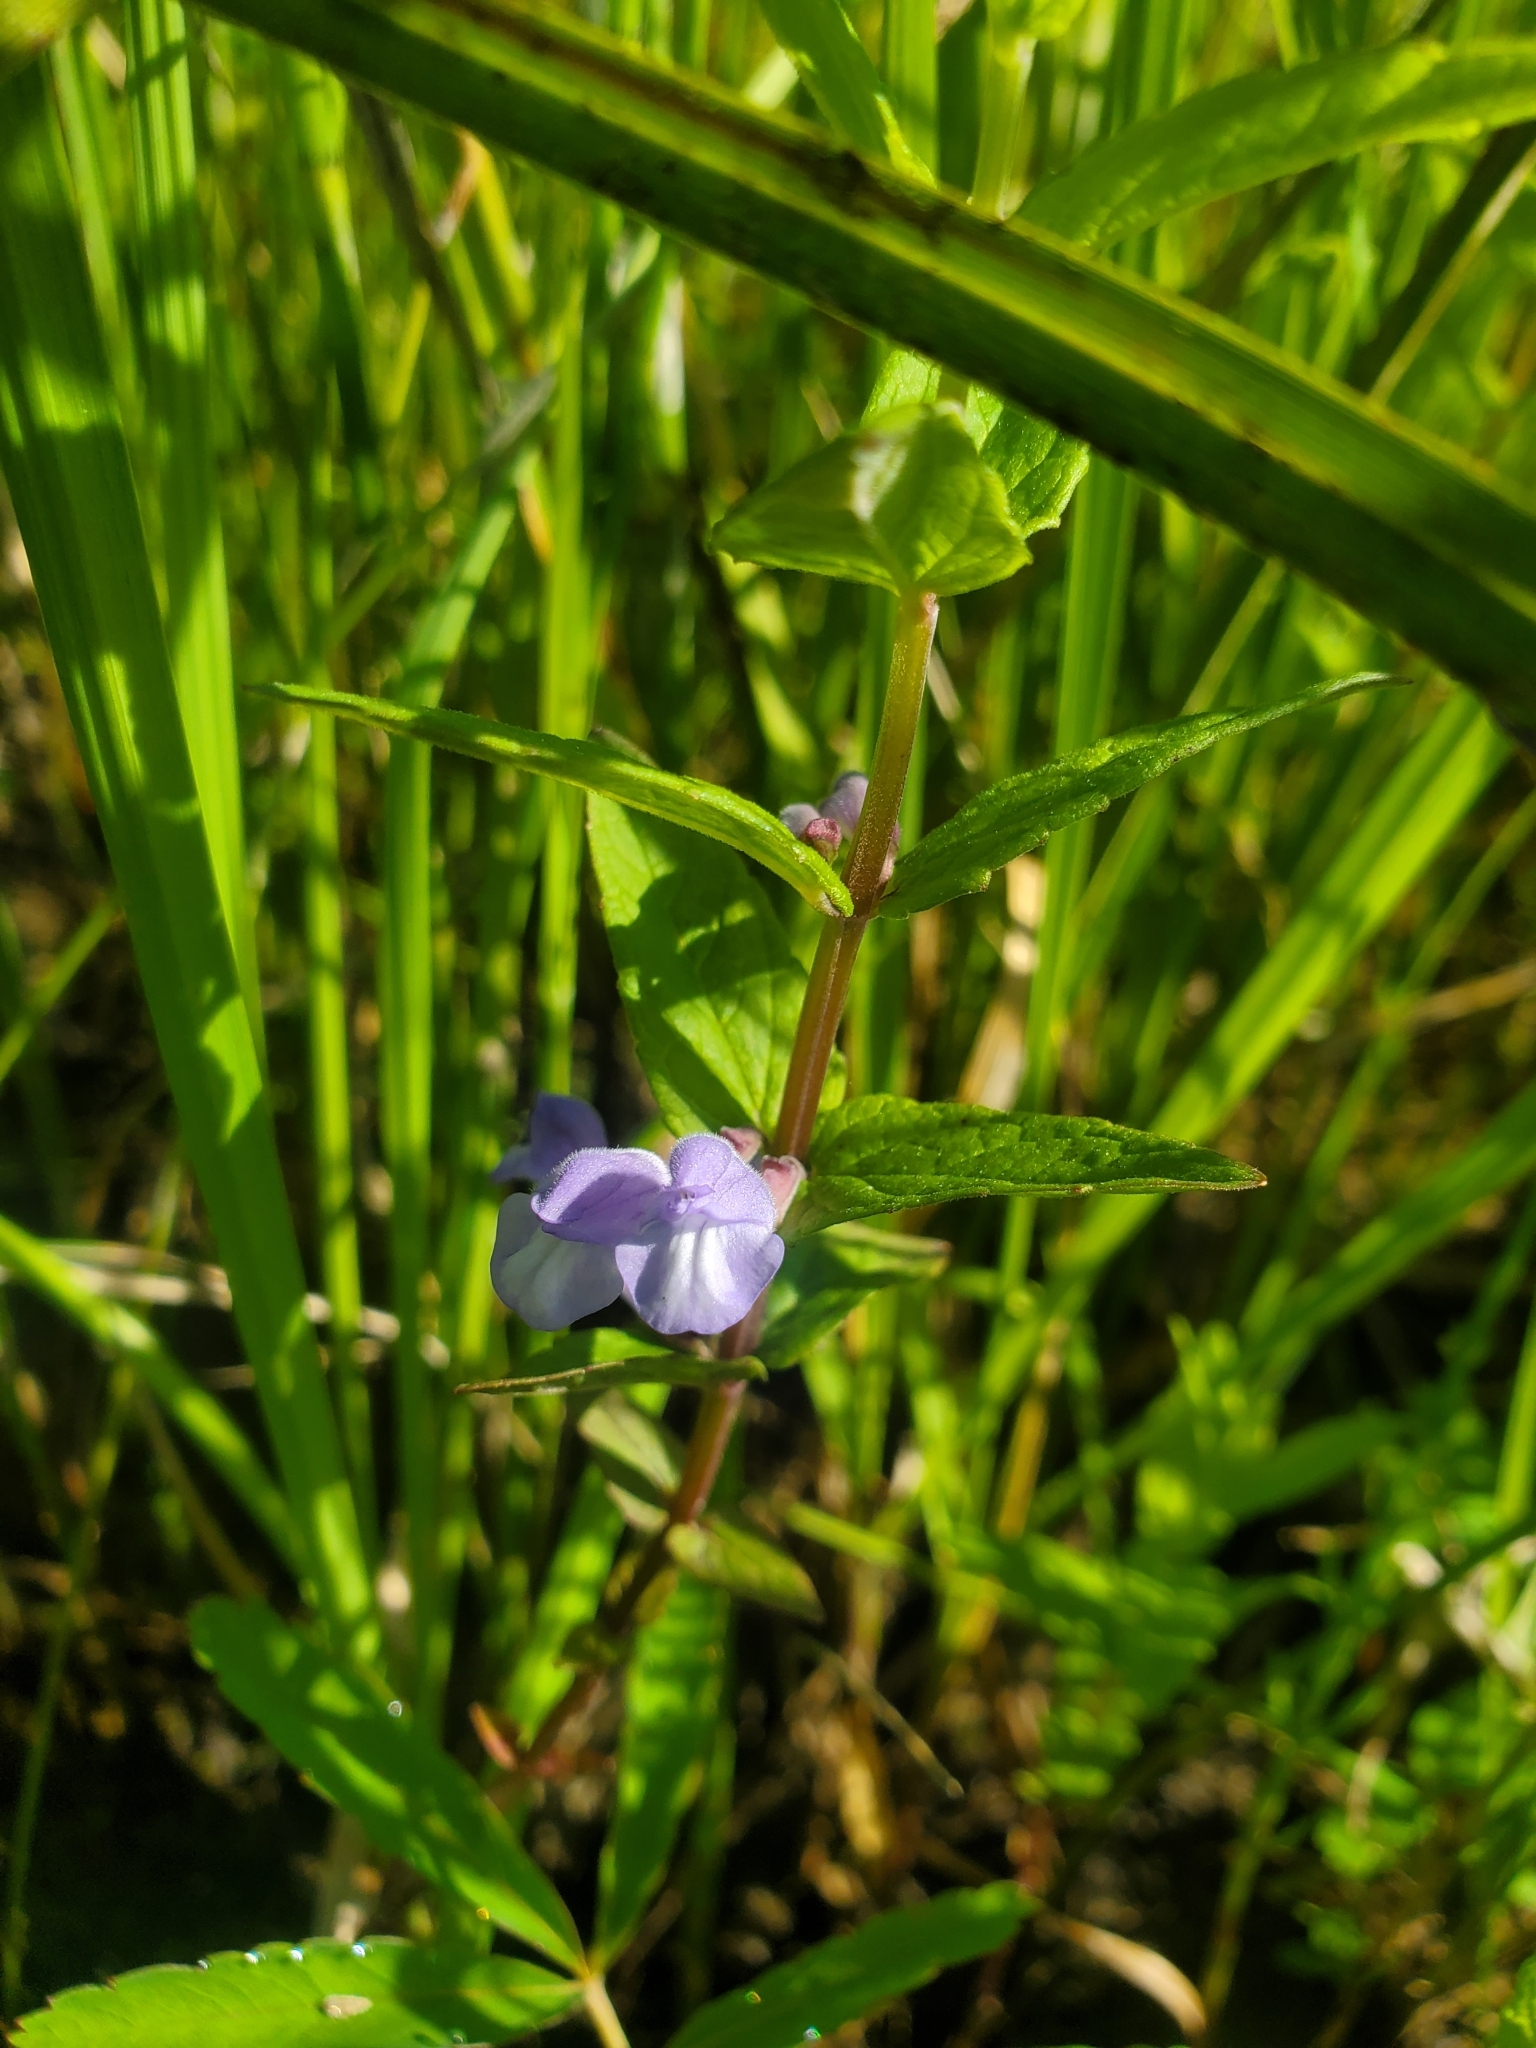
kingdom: Plantae
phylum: Tracheophyta
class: Magnoliopsida
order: Lamiales
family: Lamiaceae
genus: Scutellaria
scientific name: Scutellaria galericulata
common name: Skullcap
